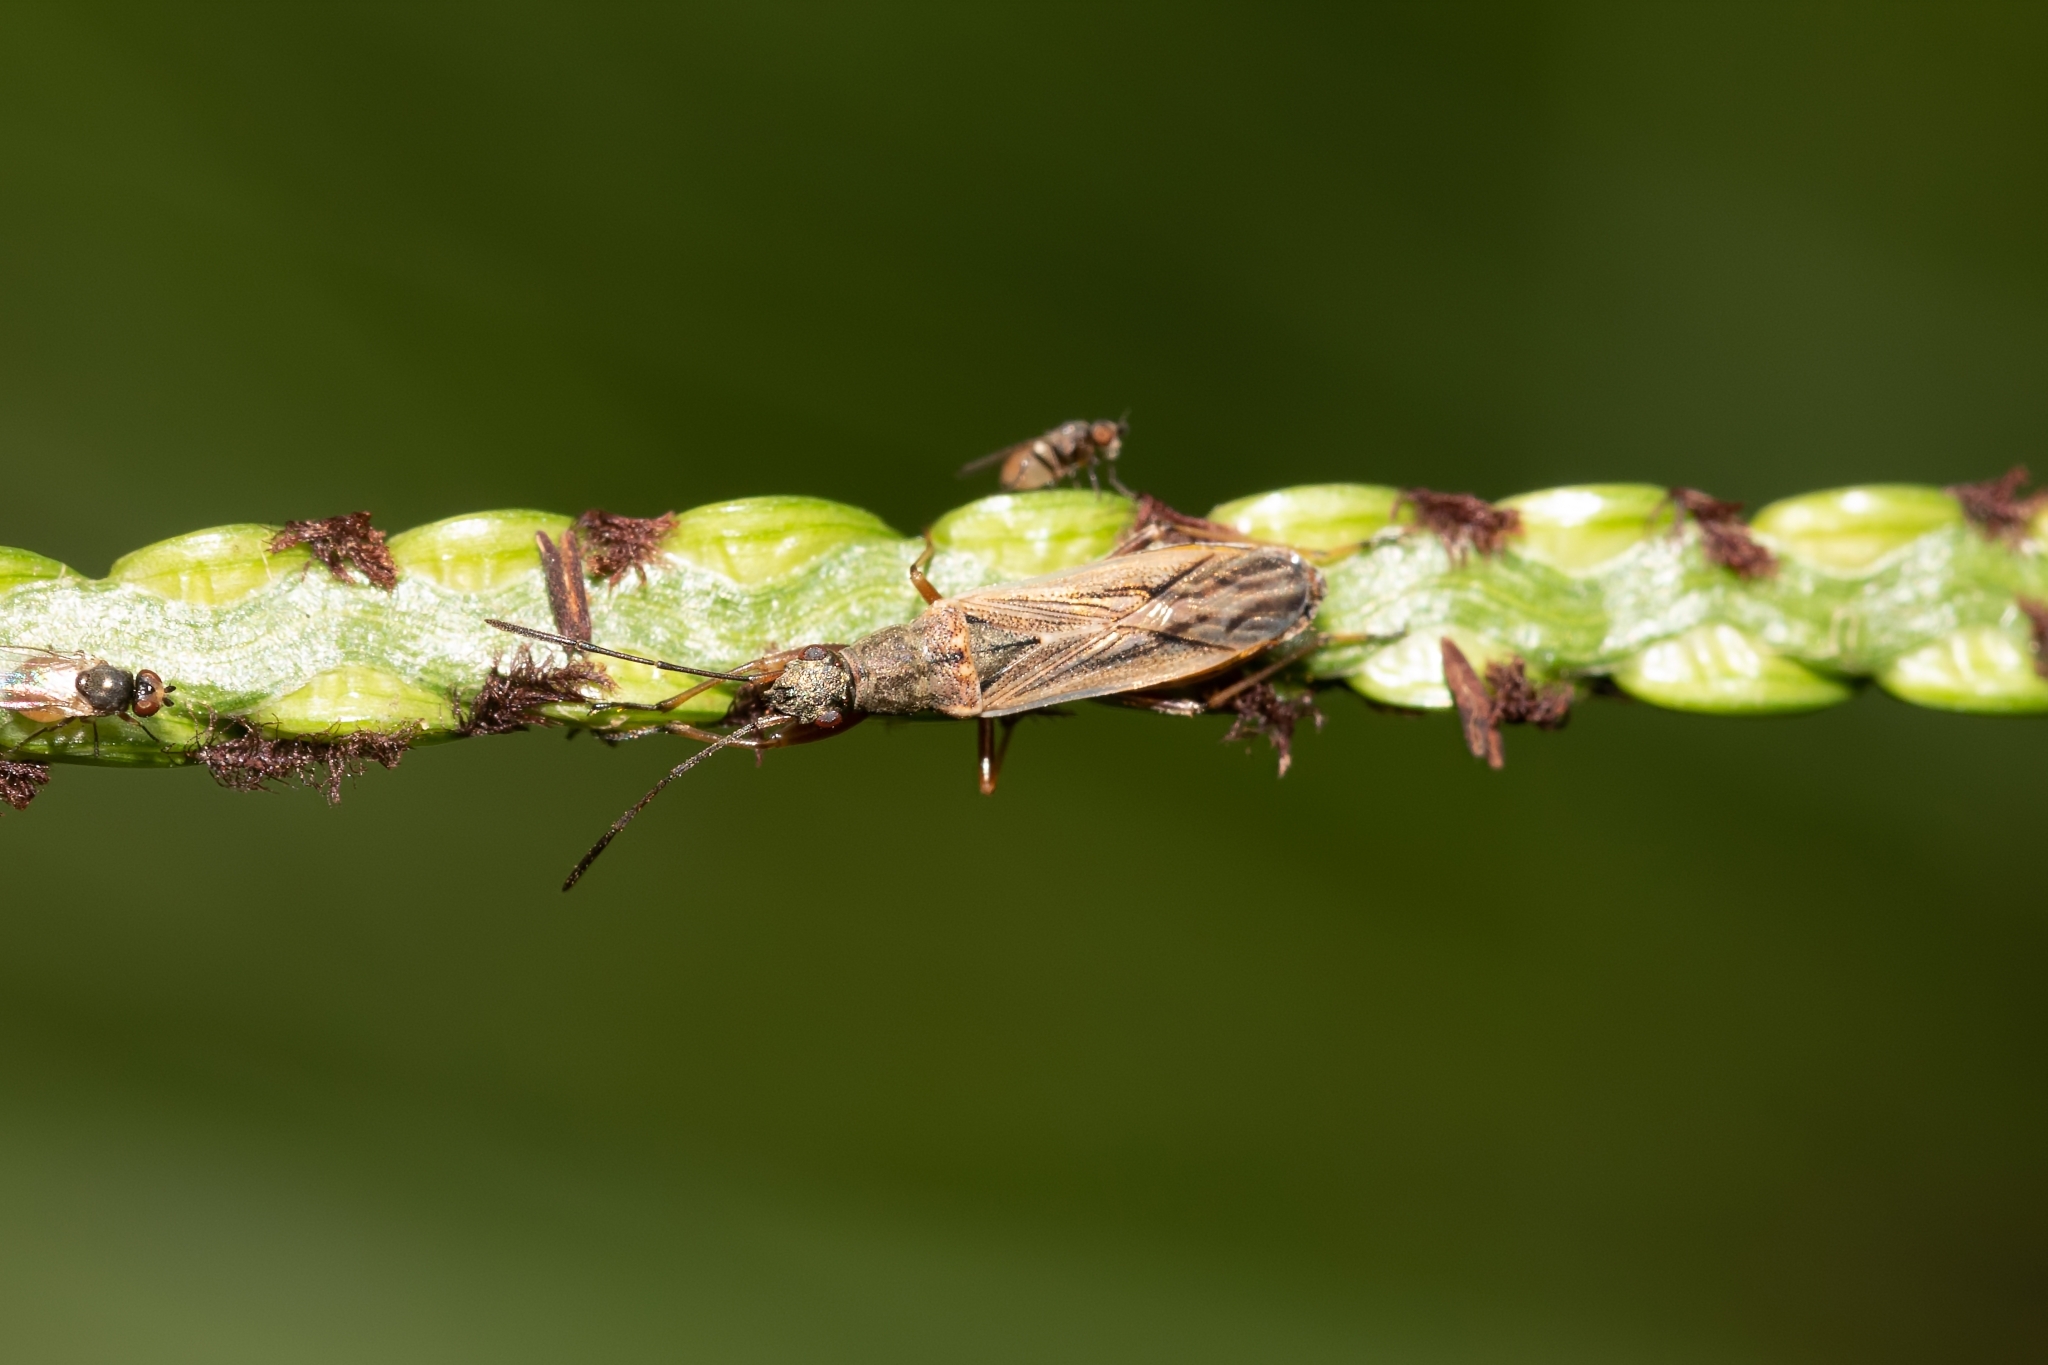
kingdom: Animalia
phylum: Arthropoda
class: Insecta
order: Hemiptera
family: Rhyparochromidae
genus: Paromius
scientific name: Paromius longulus
